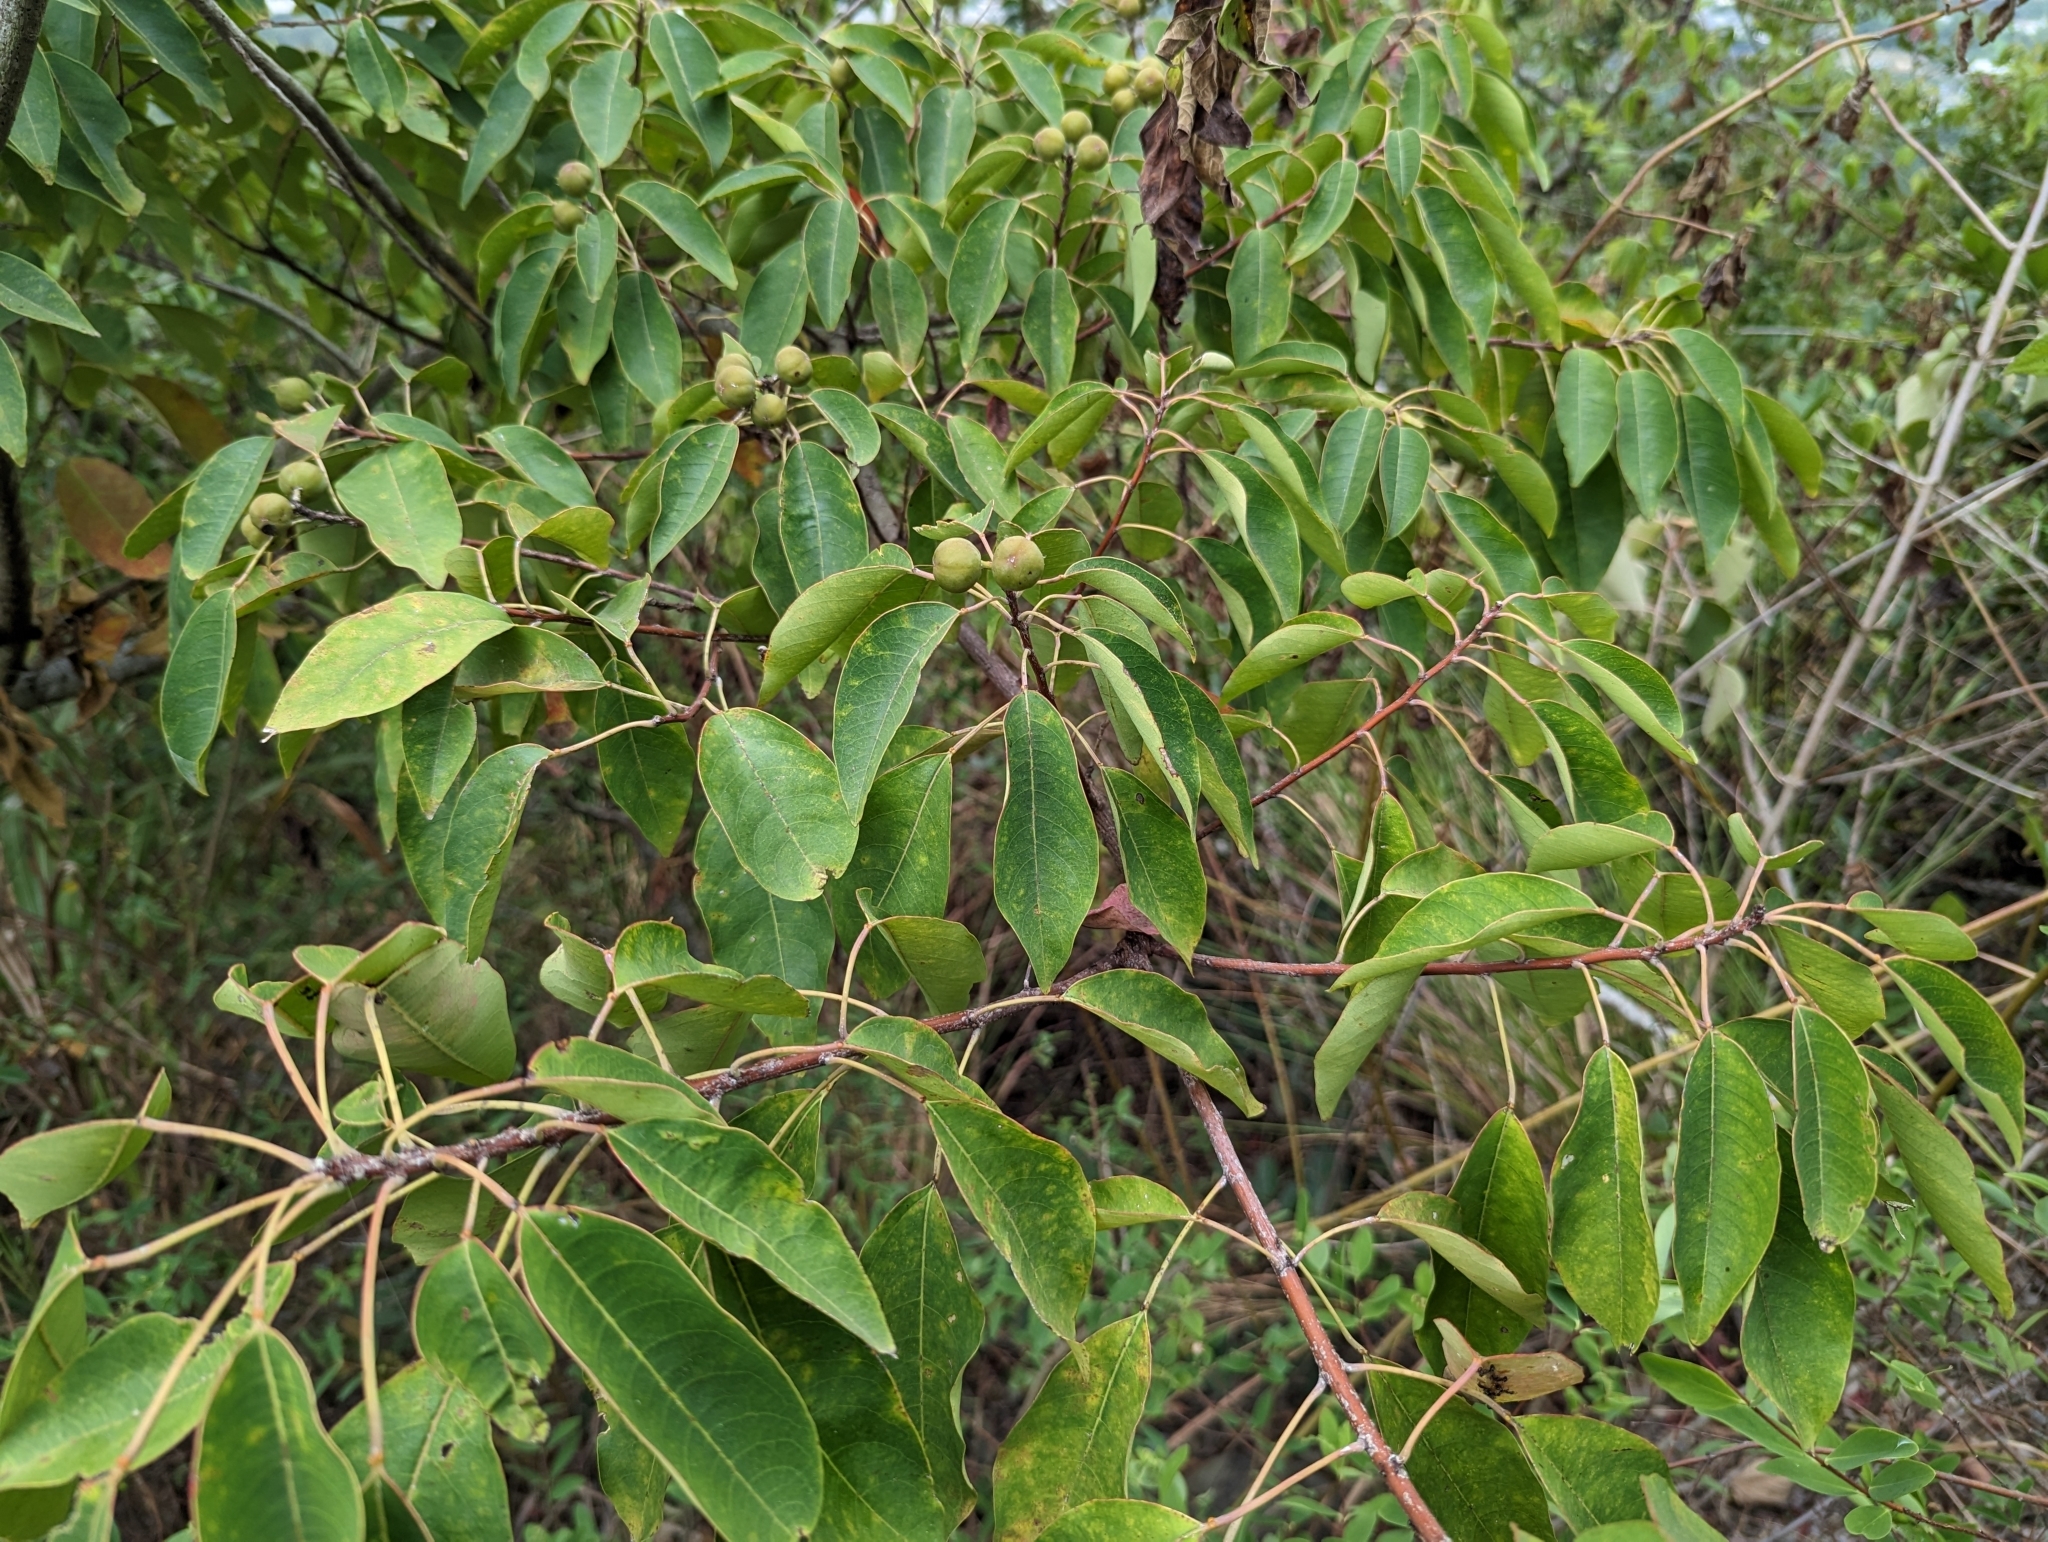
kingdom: Plantae
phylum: Tracheophyta
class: Magnoliopsida
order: Malpighiales
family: Euphorbiaceae
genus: Triadica
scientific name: Triadica cochinchinensis
